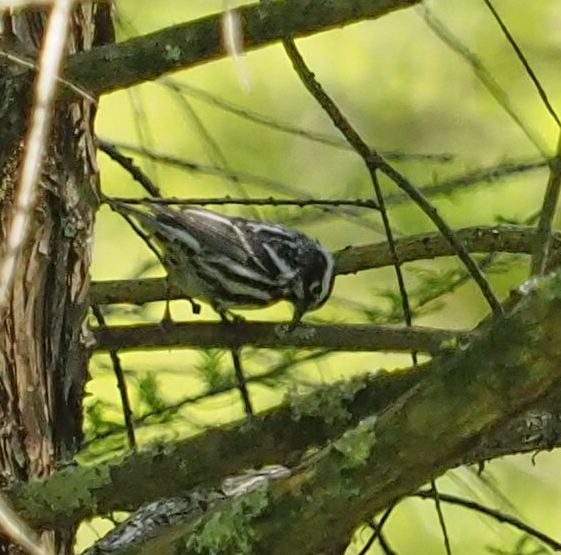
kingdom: Animalia
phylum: Chordata
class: Aves
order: Passeriformes
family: Parulidae
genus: Mniotilta
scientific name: Mniotilta varia
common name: Black-and-white warbler
